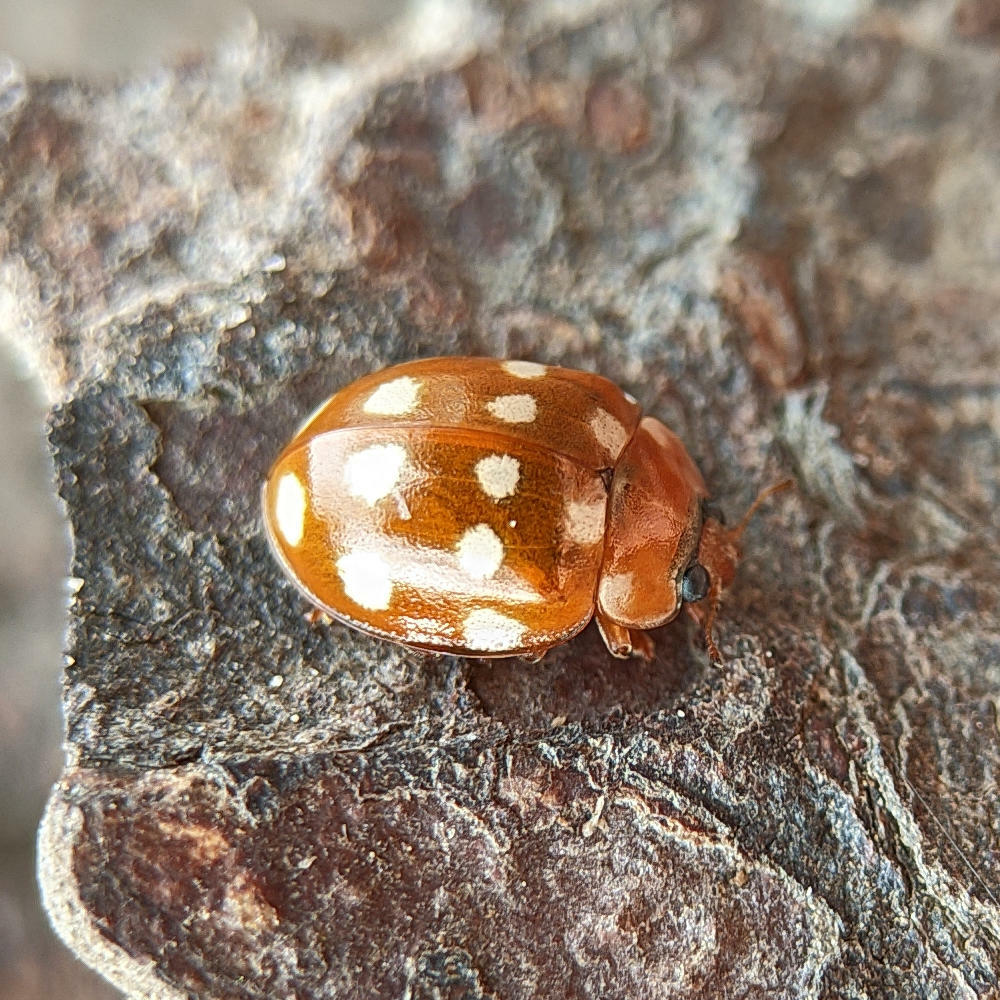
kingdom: Animalia
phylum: Arthropoda
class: Insecta
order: Coleoptera
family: Coccinellidae
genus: Calvia
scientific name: Calvia quatuordecimguttata
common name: Cream-spot ladybird
